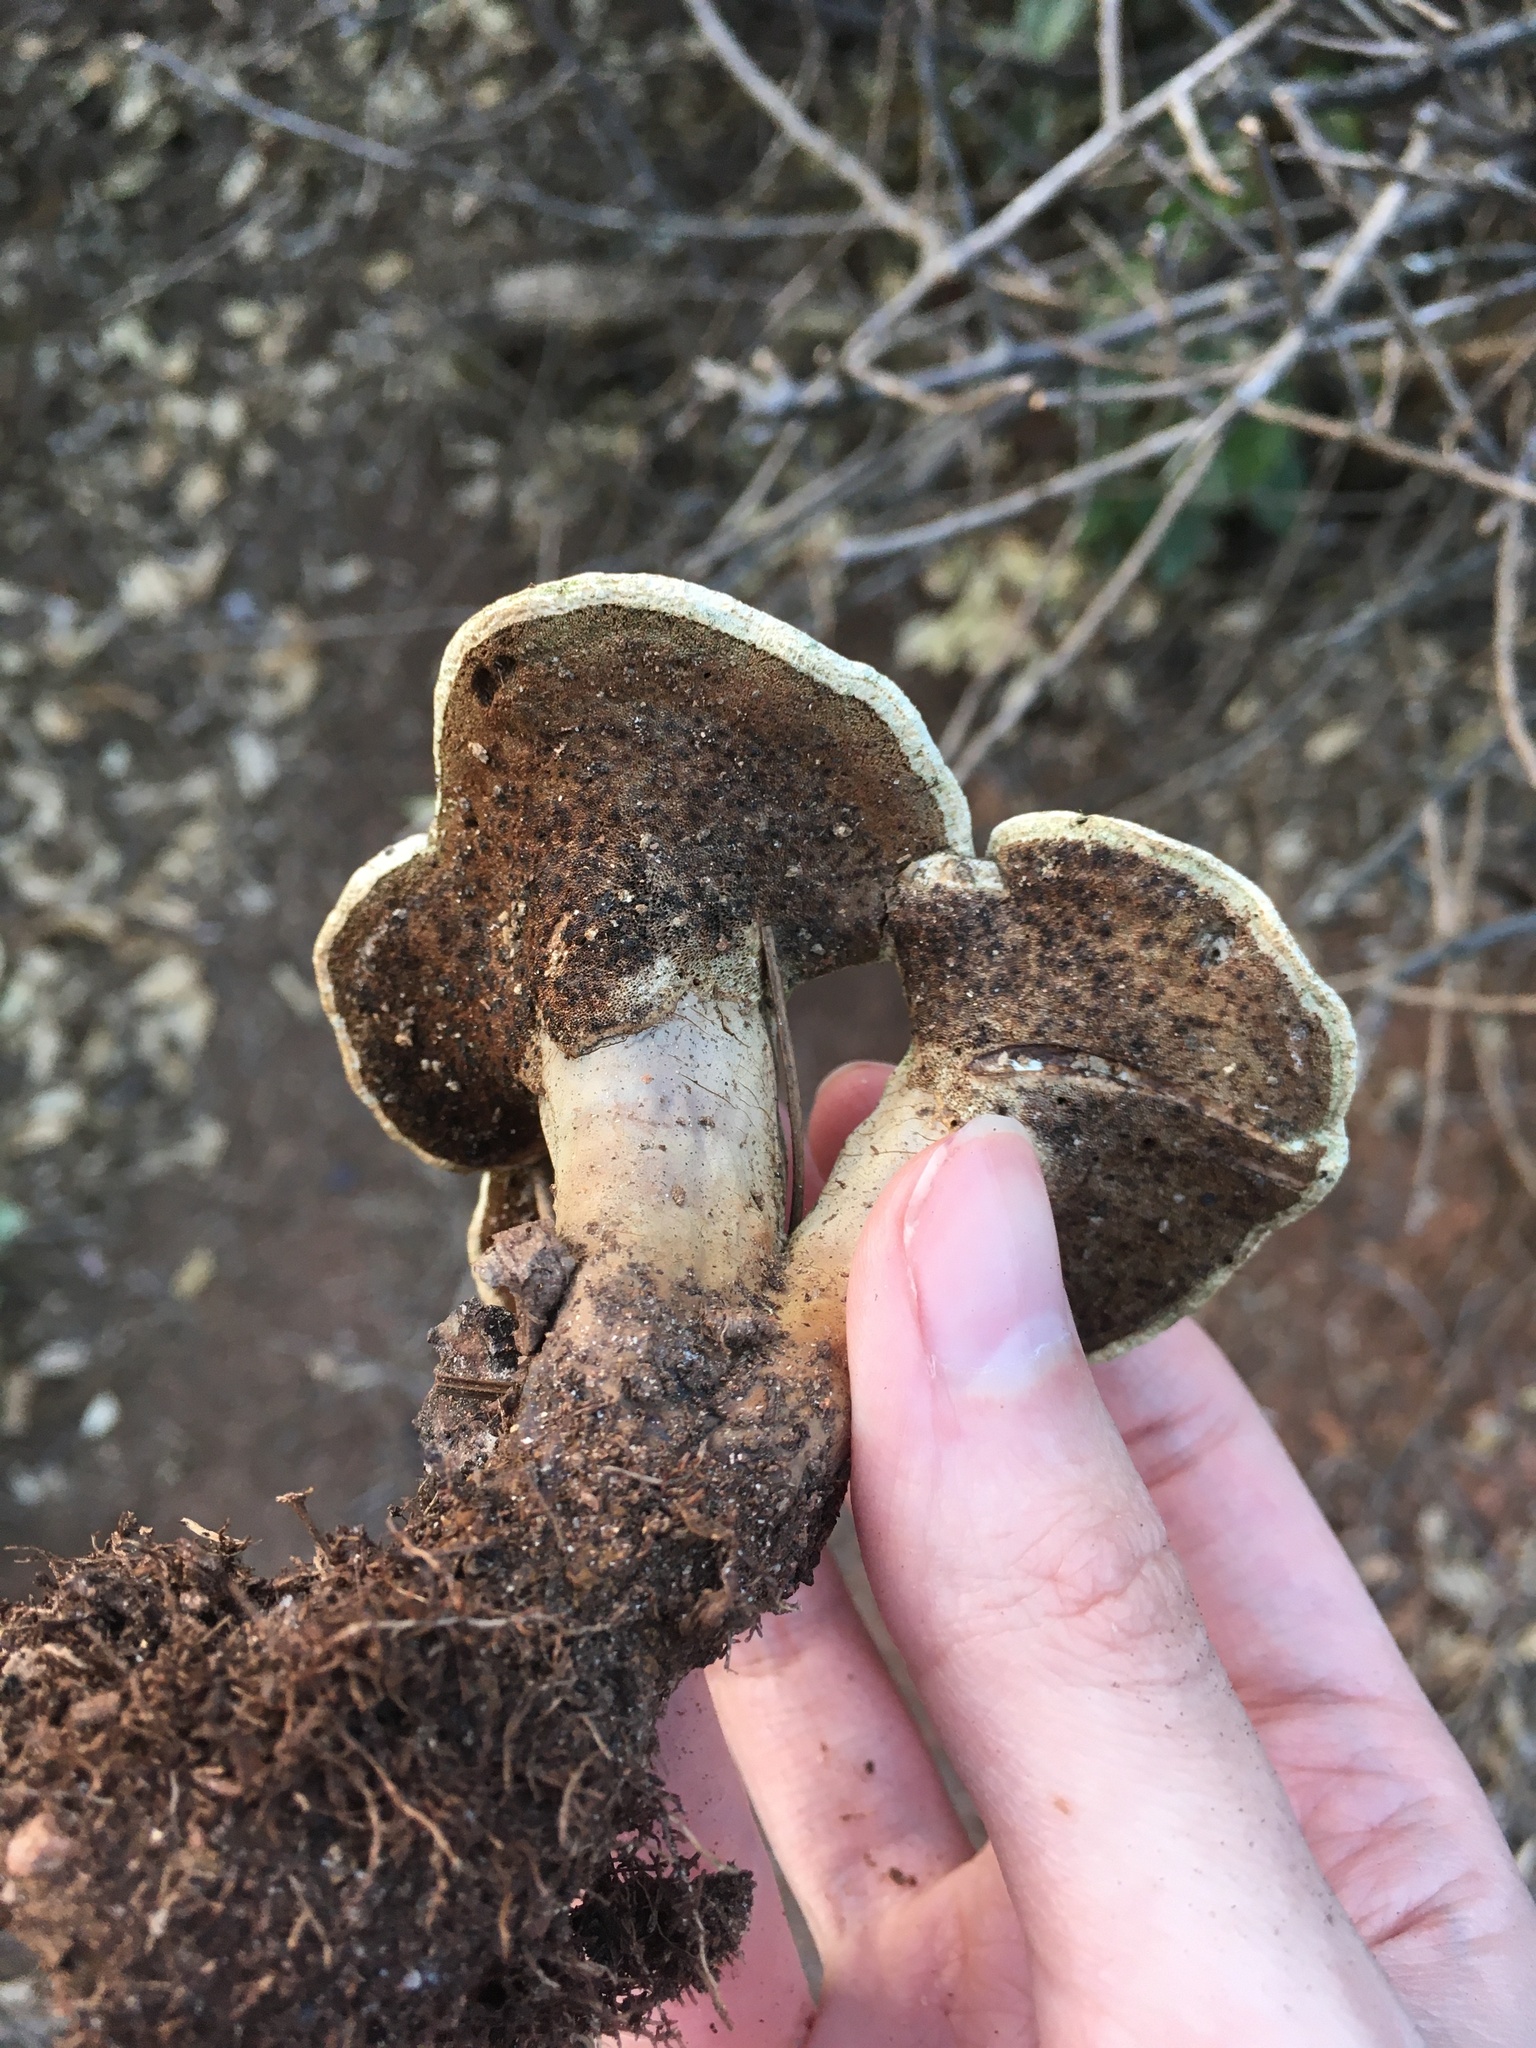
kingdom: Fungi
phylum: Basidiomycota
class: Agaricomycetes
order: Polyporales
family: Polyporaceae
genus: Ganoderma
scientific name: Ganoderma curtisii
